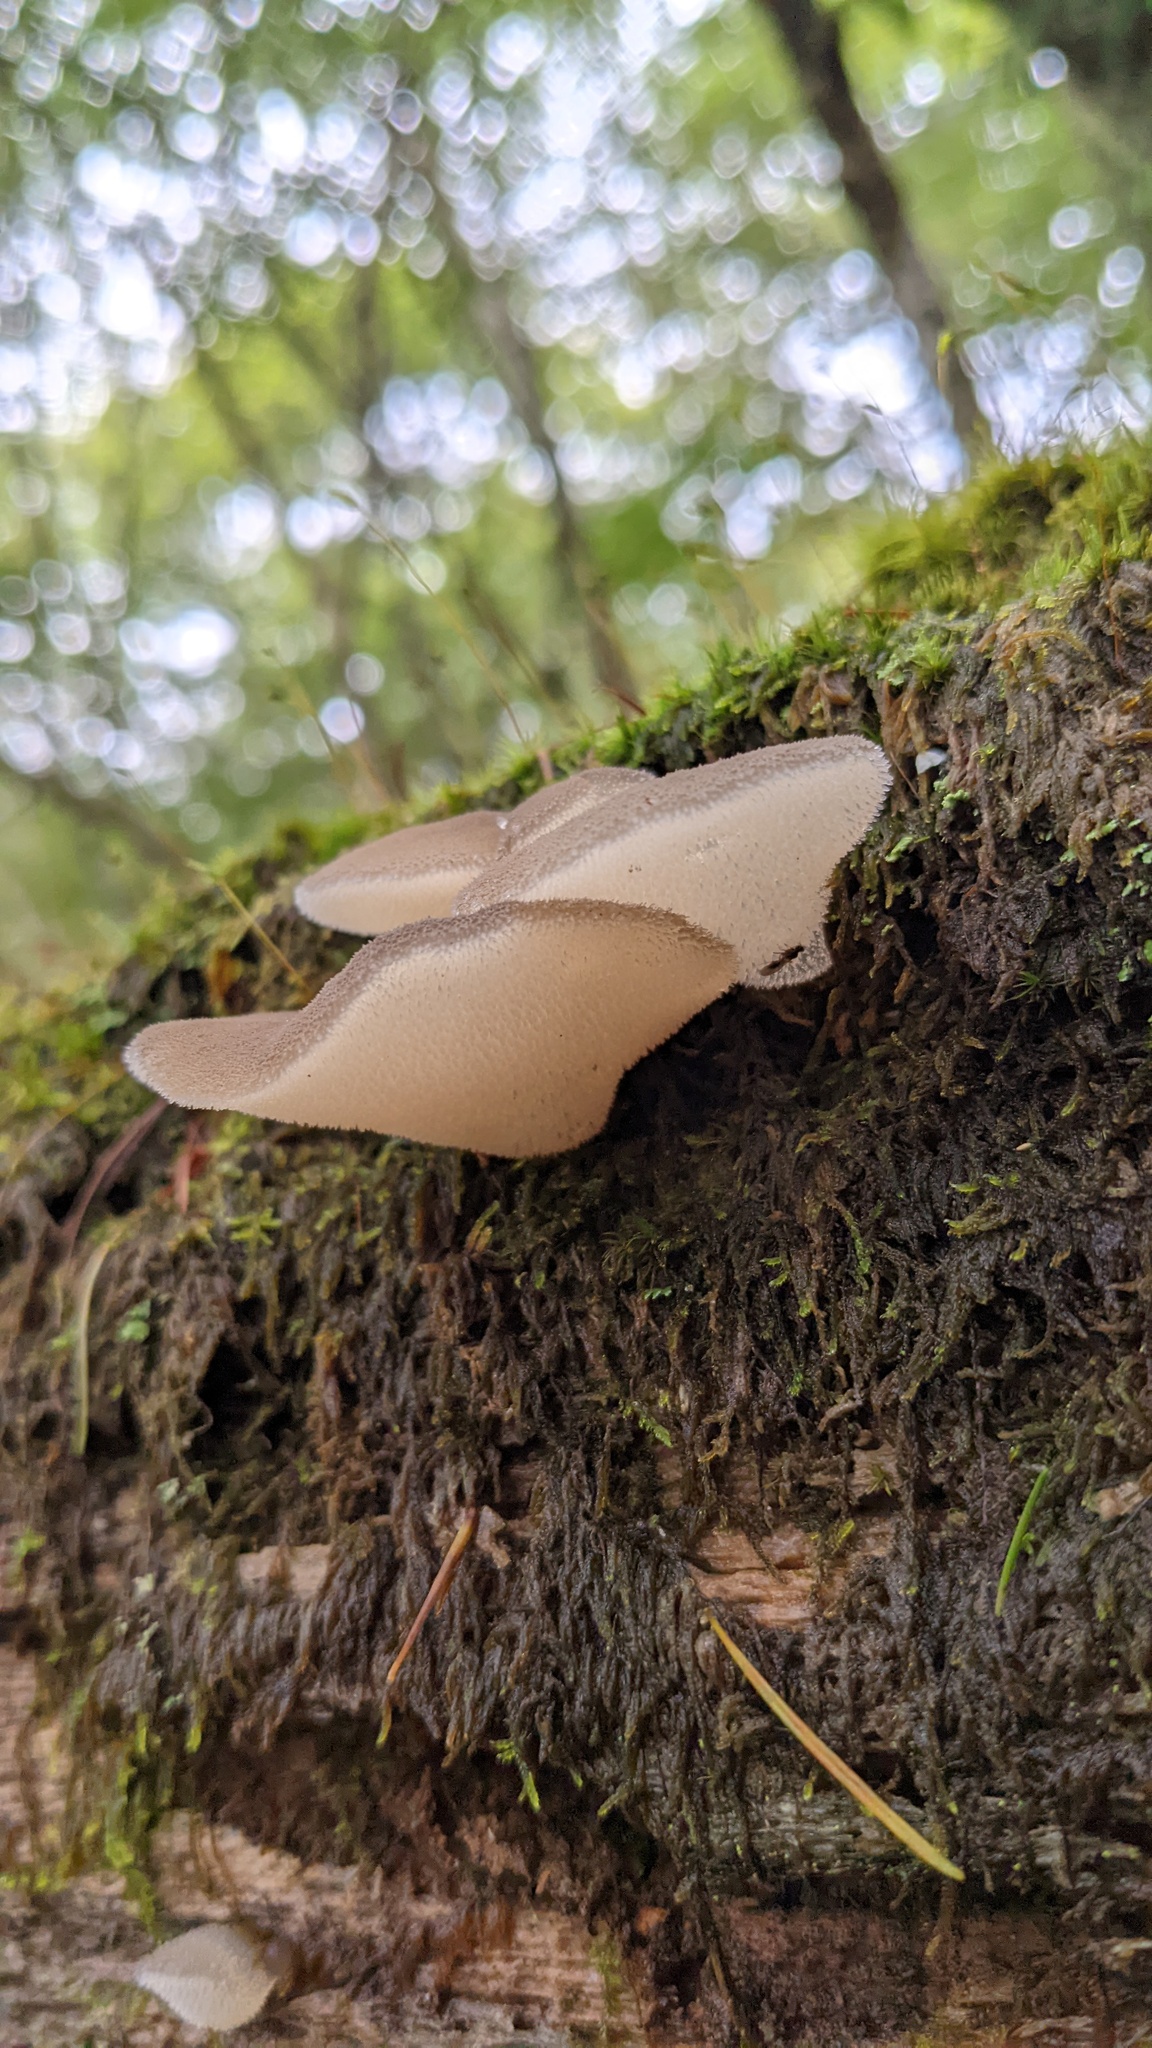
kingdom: Fungi
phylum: Basidiomycota
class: Agaricomycetes
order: Auriculariales
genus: Pseudohydnum
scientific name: Pseudohydnum gelatinosum
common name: Jelly tongue
